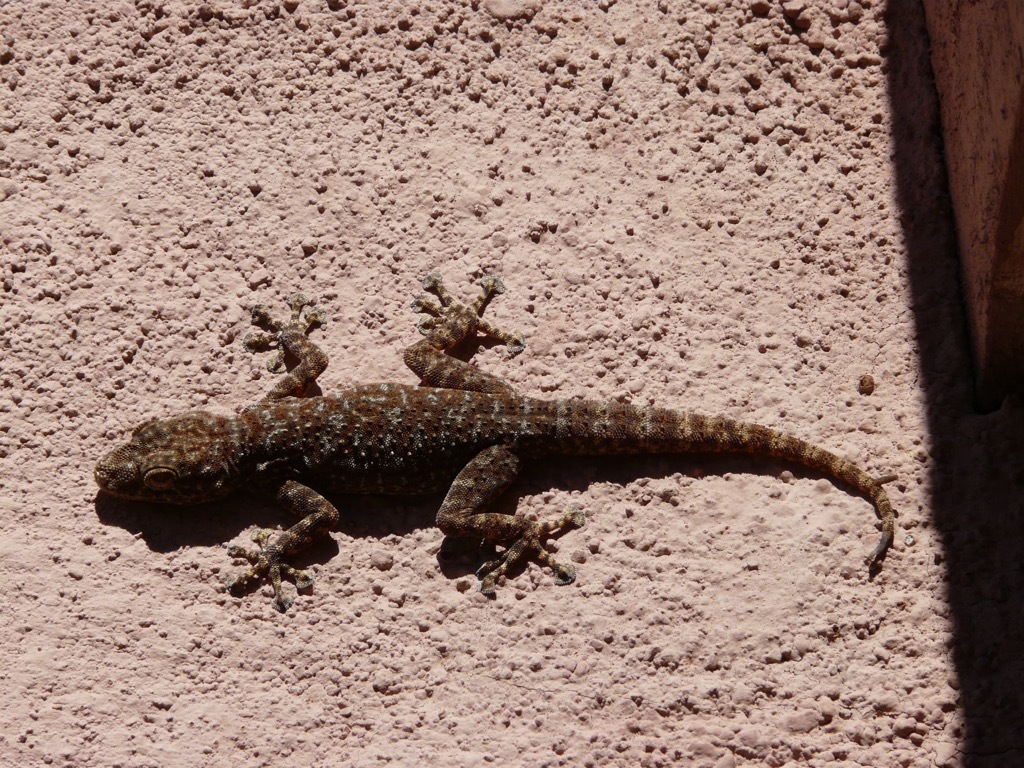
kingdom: Animalia
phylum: Chordata
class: Squamata
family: Phyllodactylidae
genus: Ptyodactylus
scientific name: Ptyodactylus oudrii
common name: Algerian fan-fingered gecko
